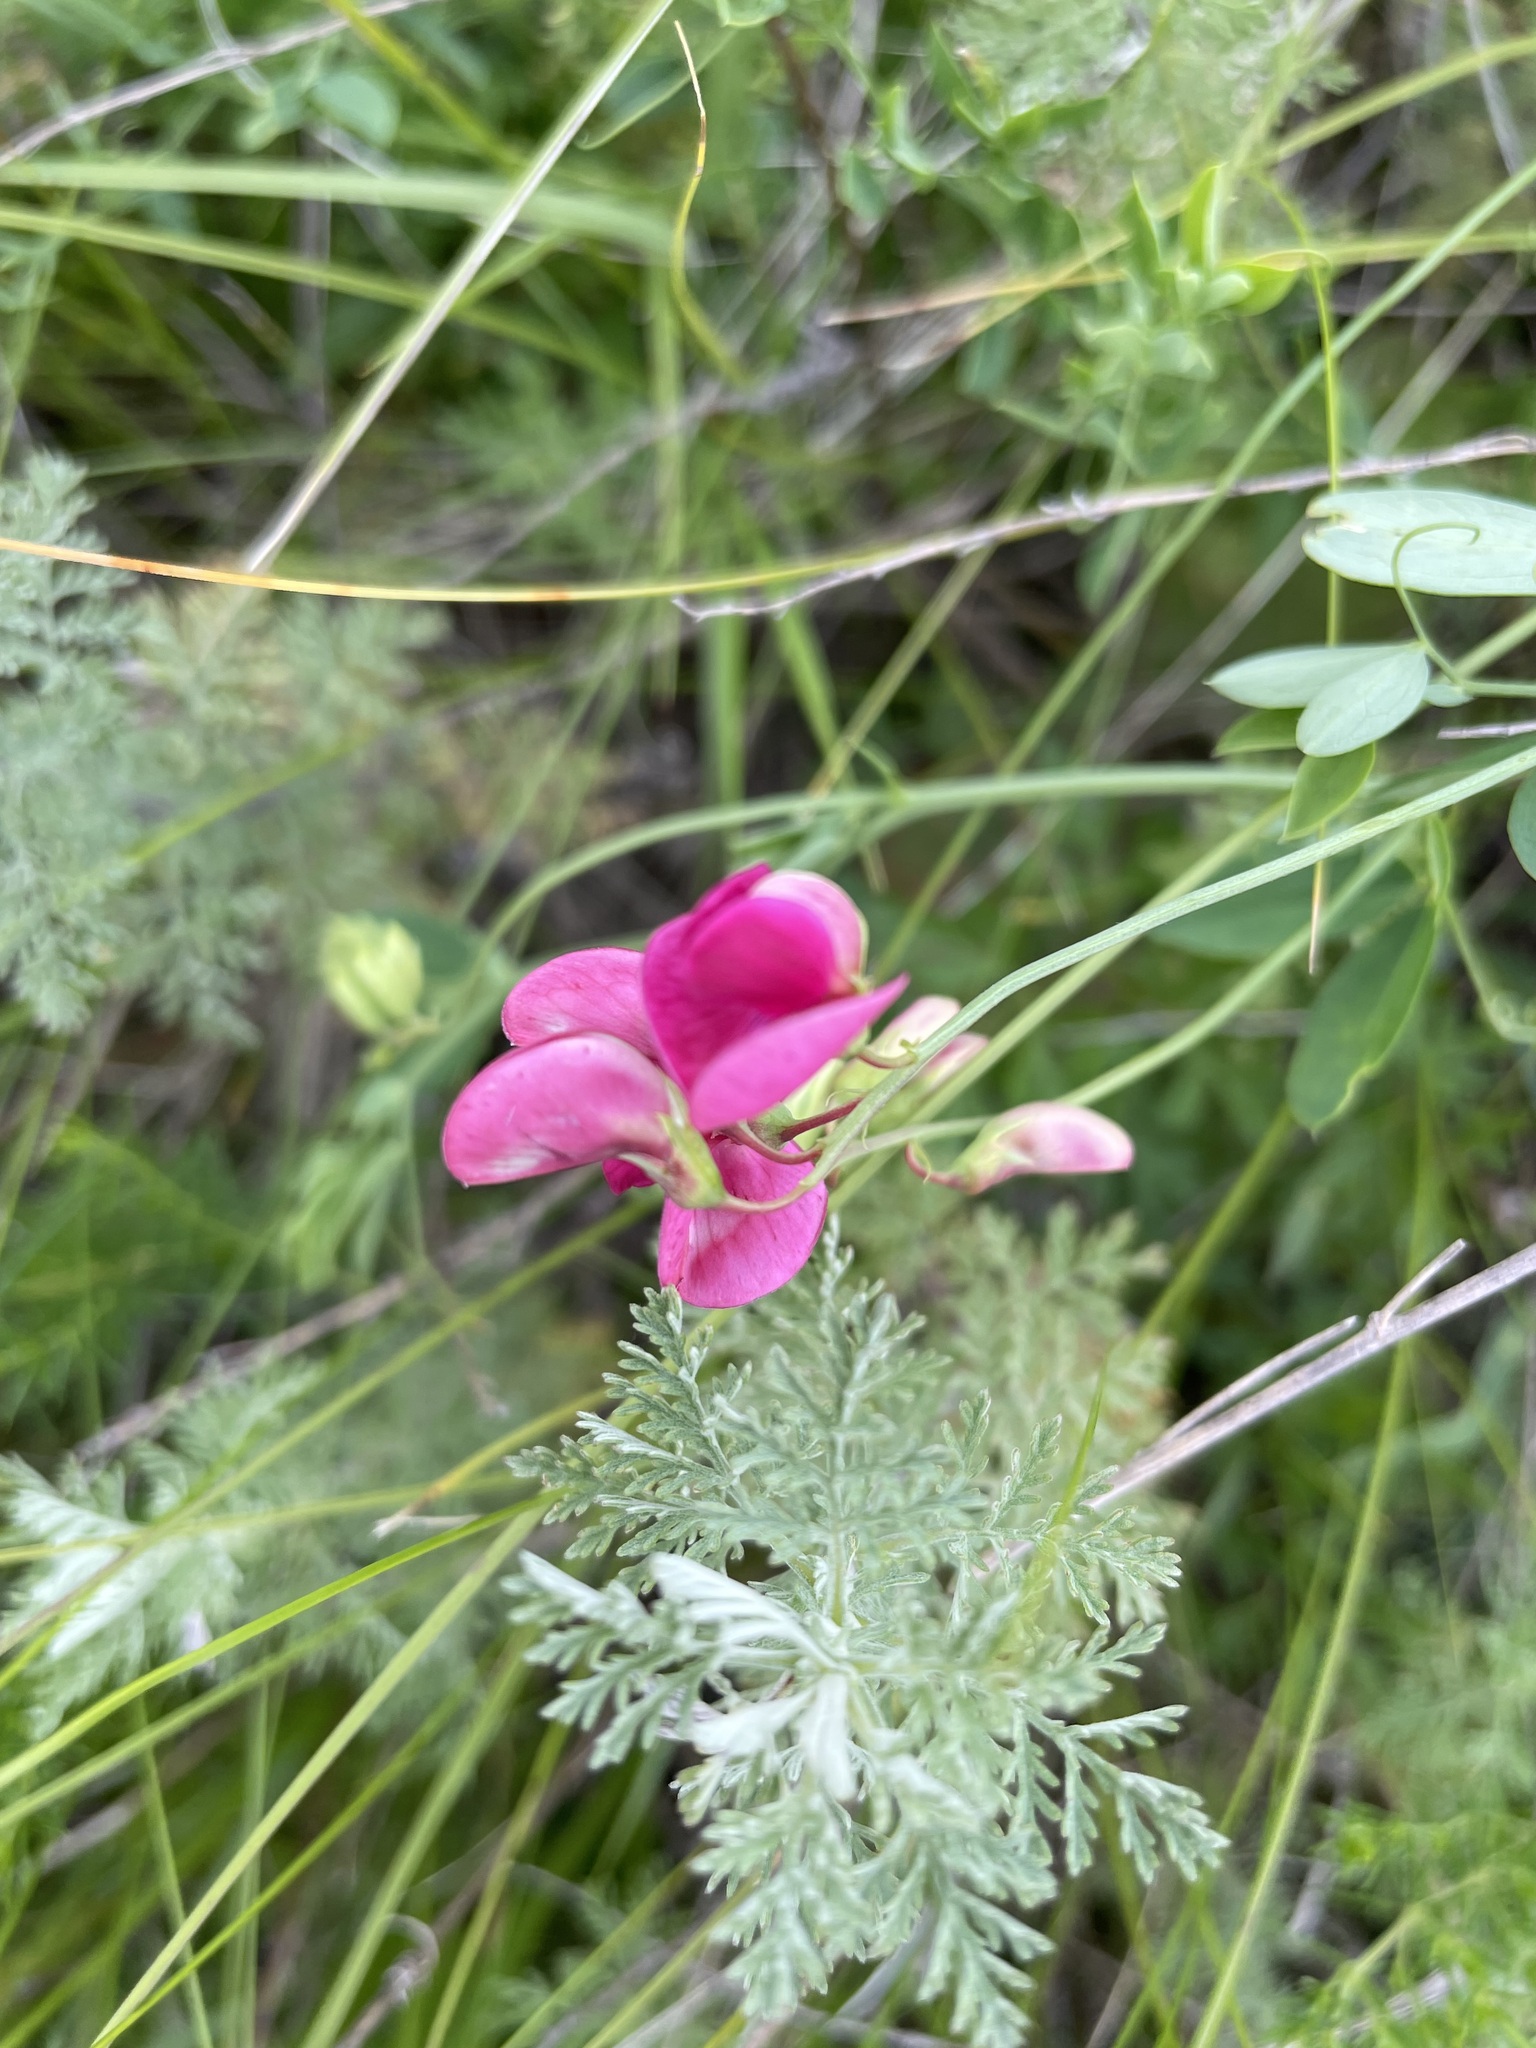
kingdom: Plantae
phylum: Tracheophyta
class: Magnoliopsida
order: Fabales
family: Fabaceae
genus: Lathyrus
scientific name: Lathyrus tuberosus
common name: Tuberous pea
